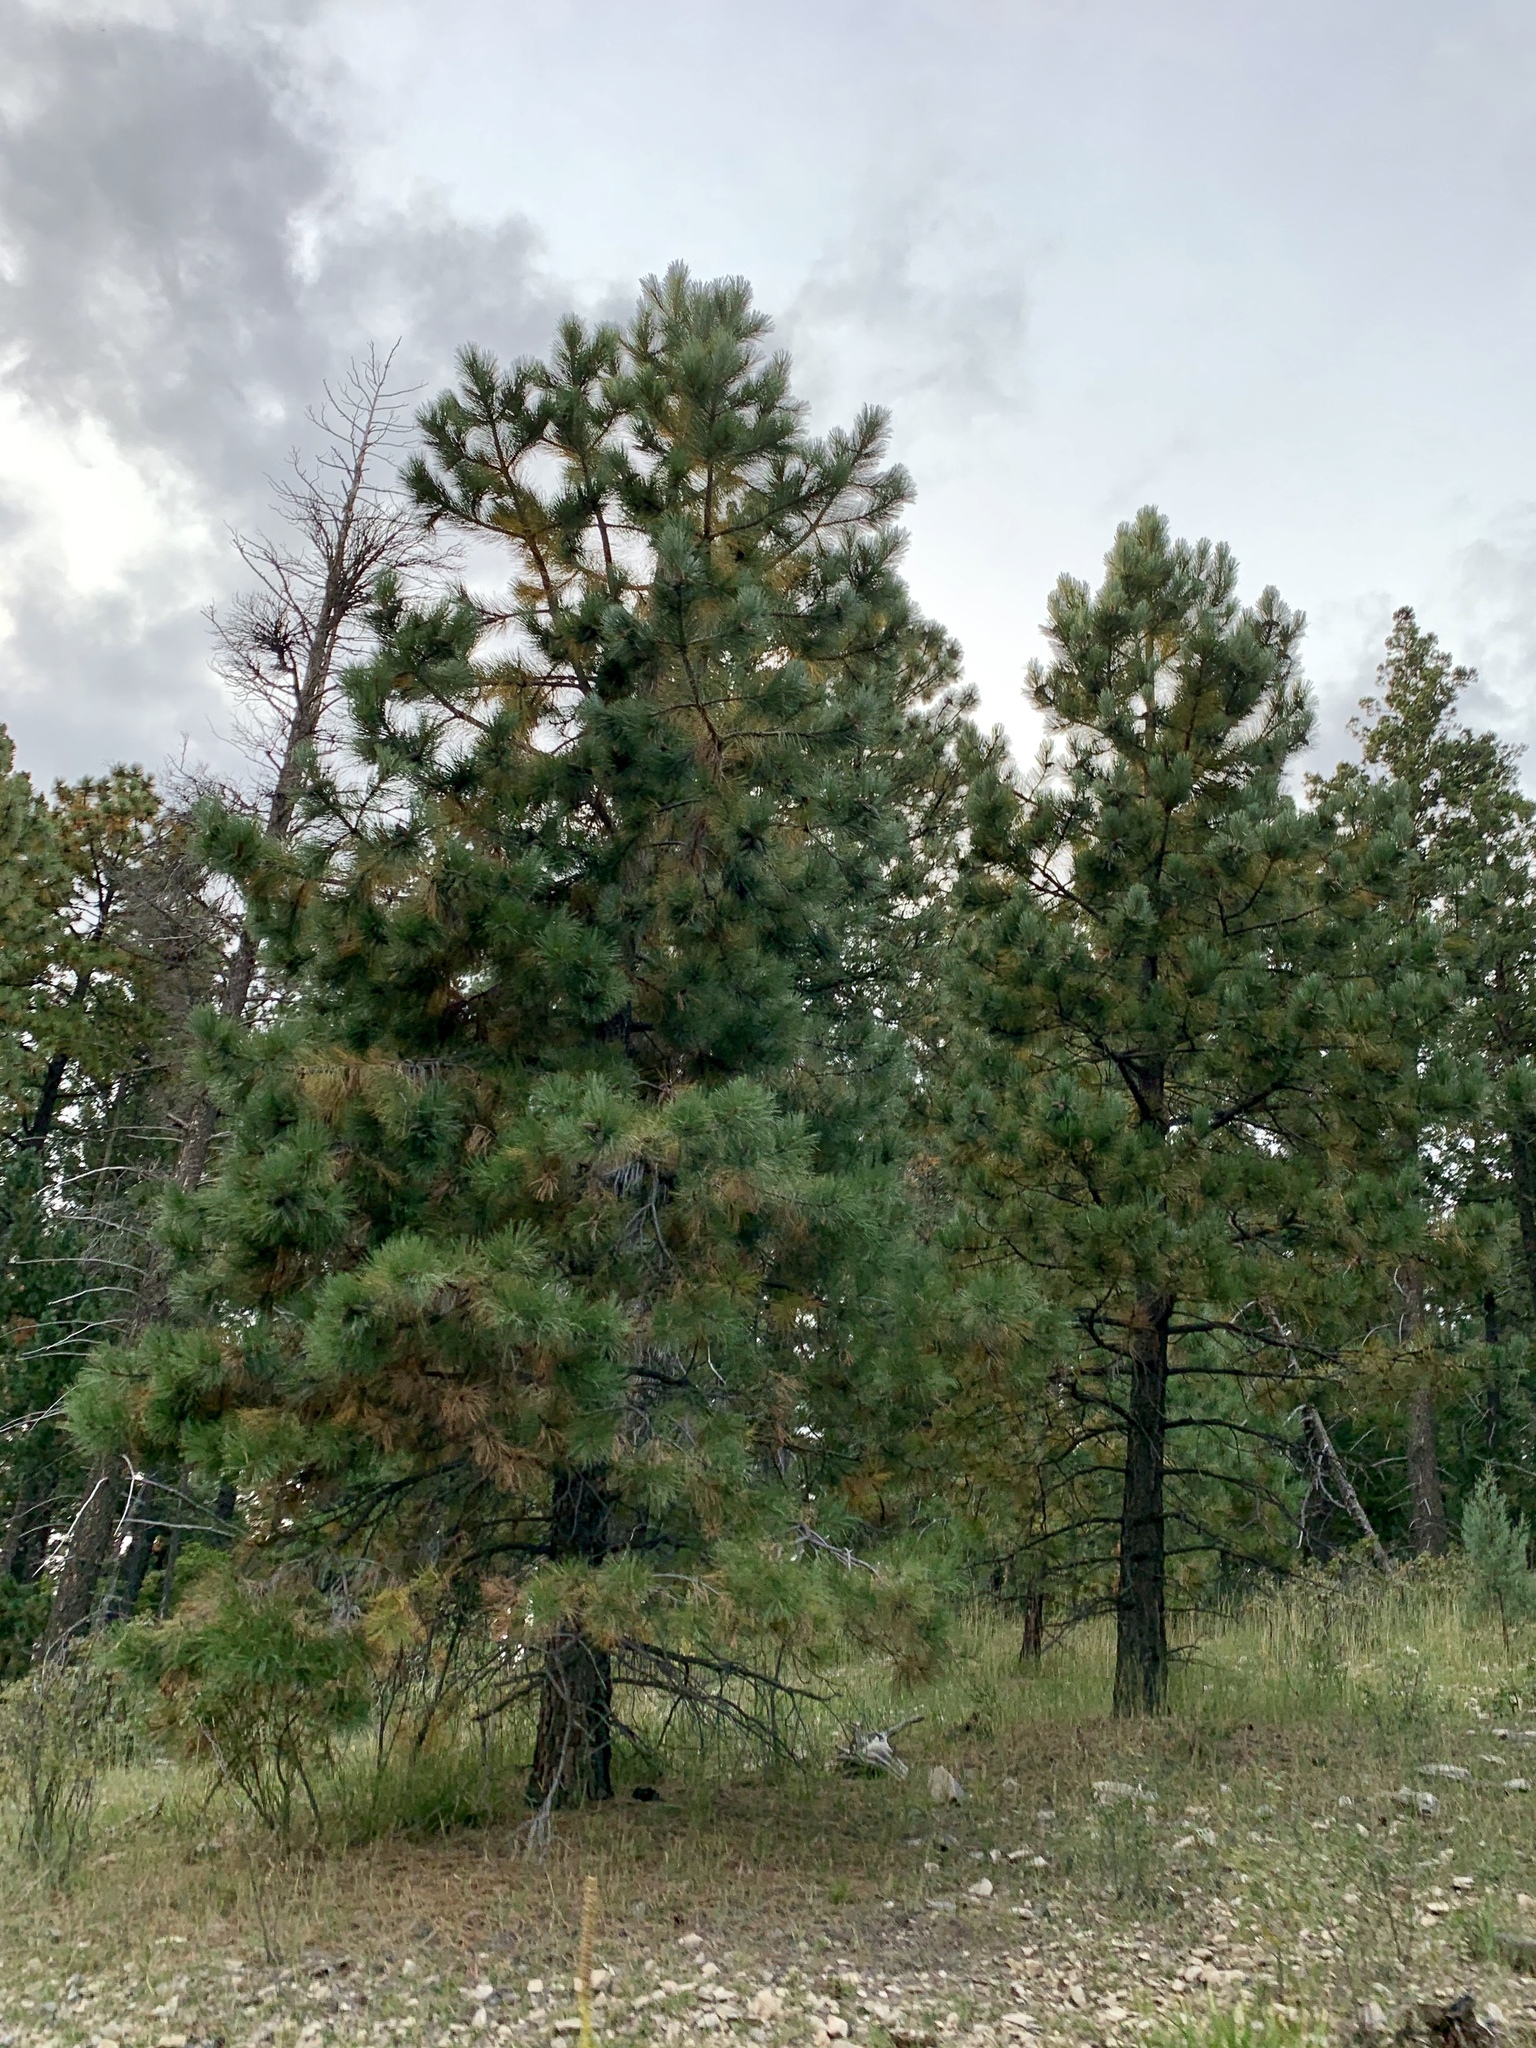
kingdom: Plantae
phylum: Tracheophyta
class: Pinopsida
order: Pinales
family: Pinaceae
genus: Pinus
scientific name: Pinus ponderosa
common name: Western yellow-pine
